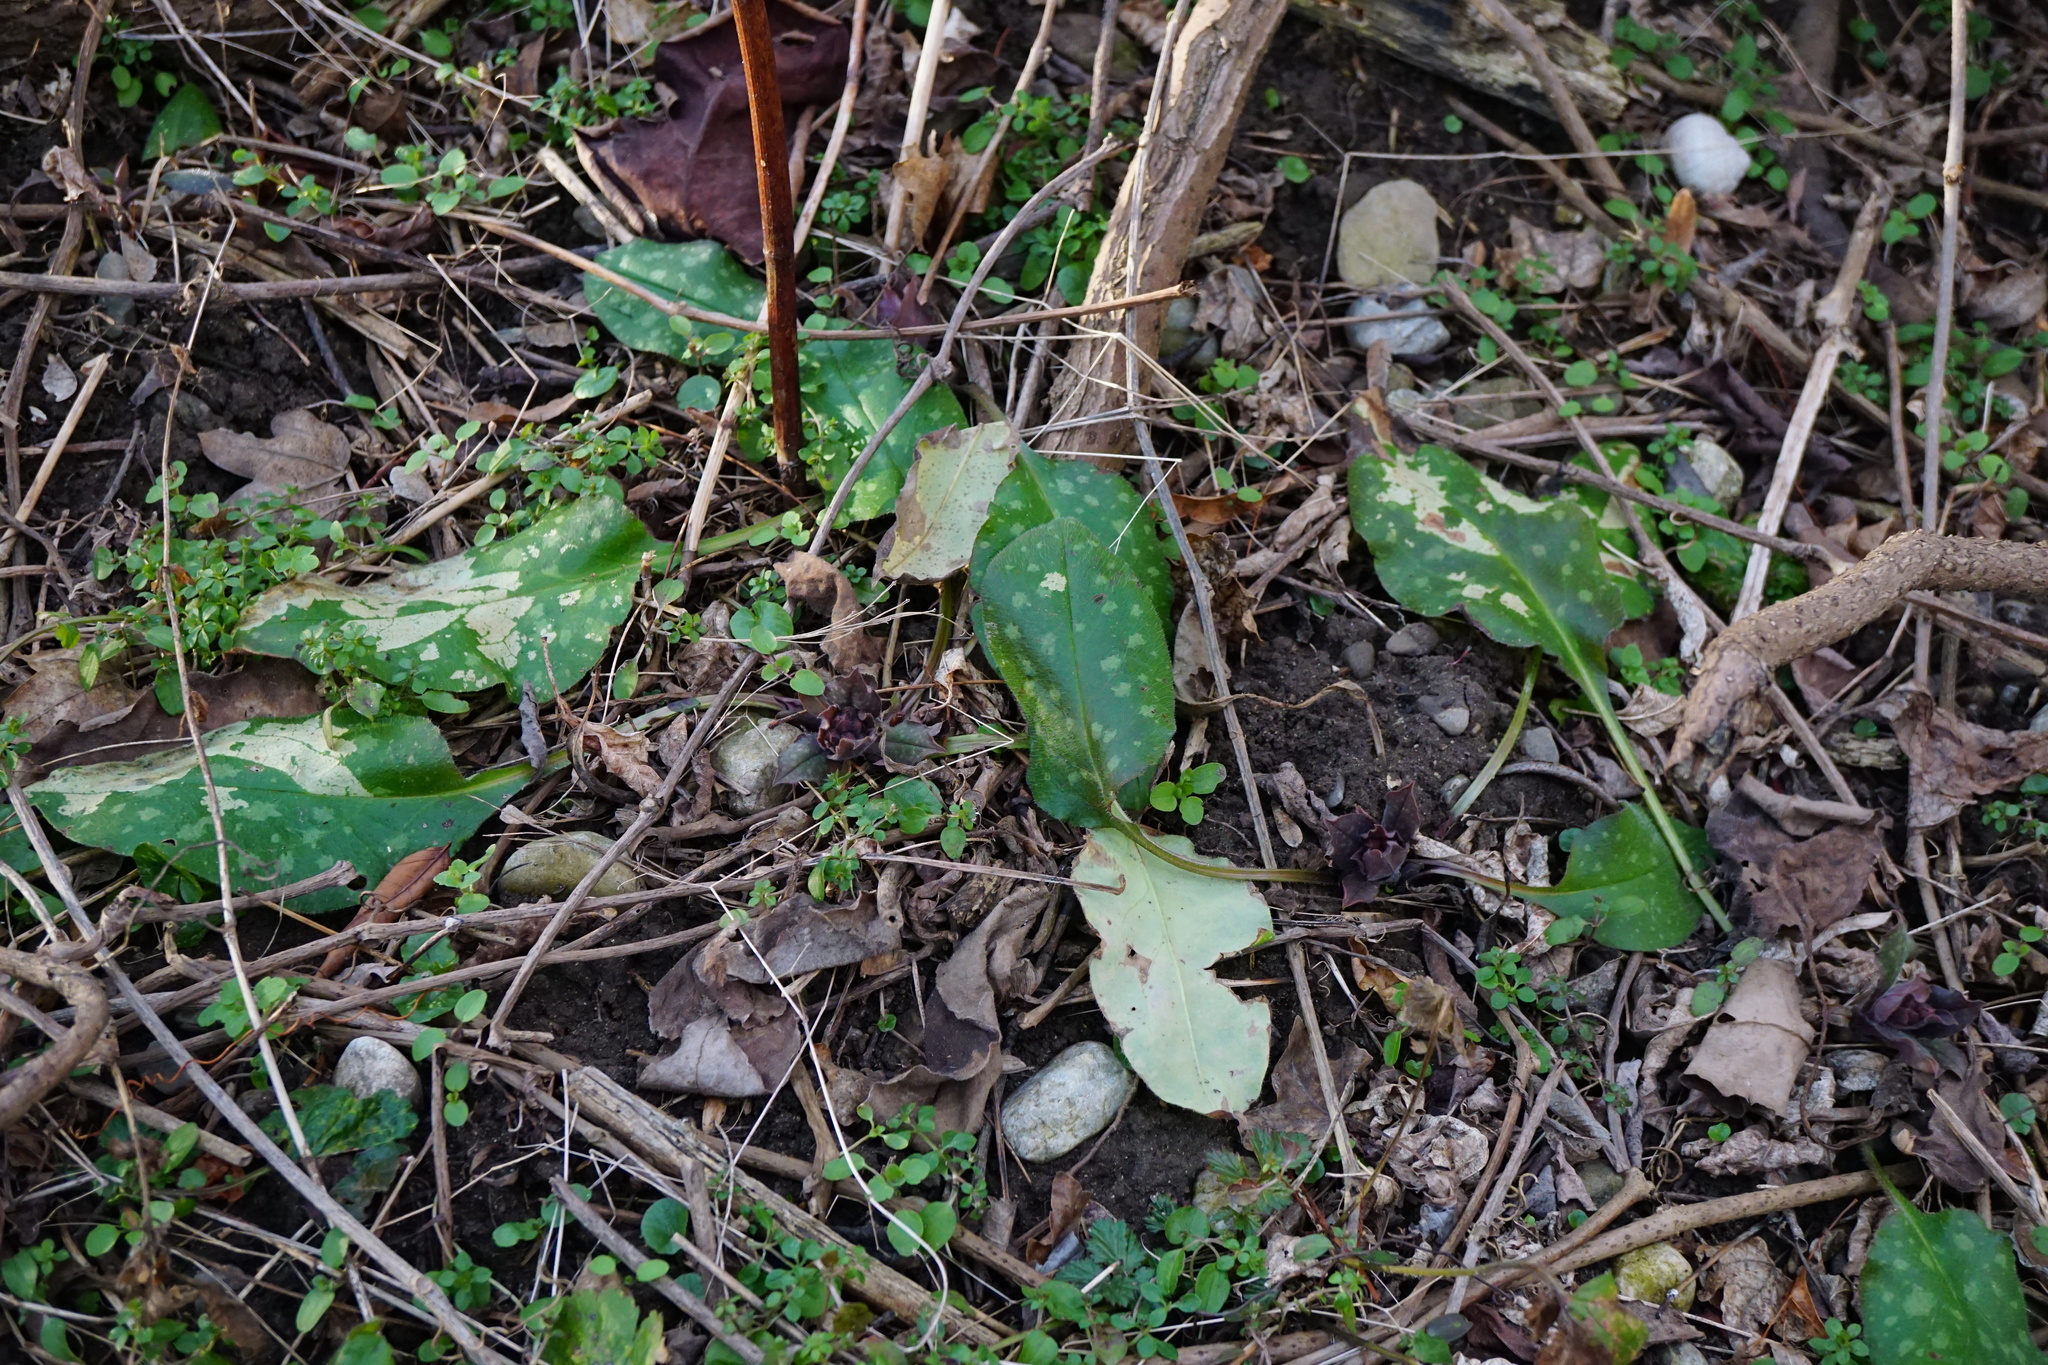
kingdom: Plantae
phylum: Tracheophyta
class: Magnoliopsida
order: Boraginales
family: Boraginaceae
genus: Pulmonaria
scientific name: Pulmonaria officinalis
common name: Lungwort
